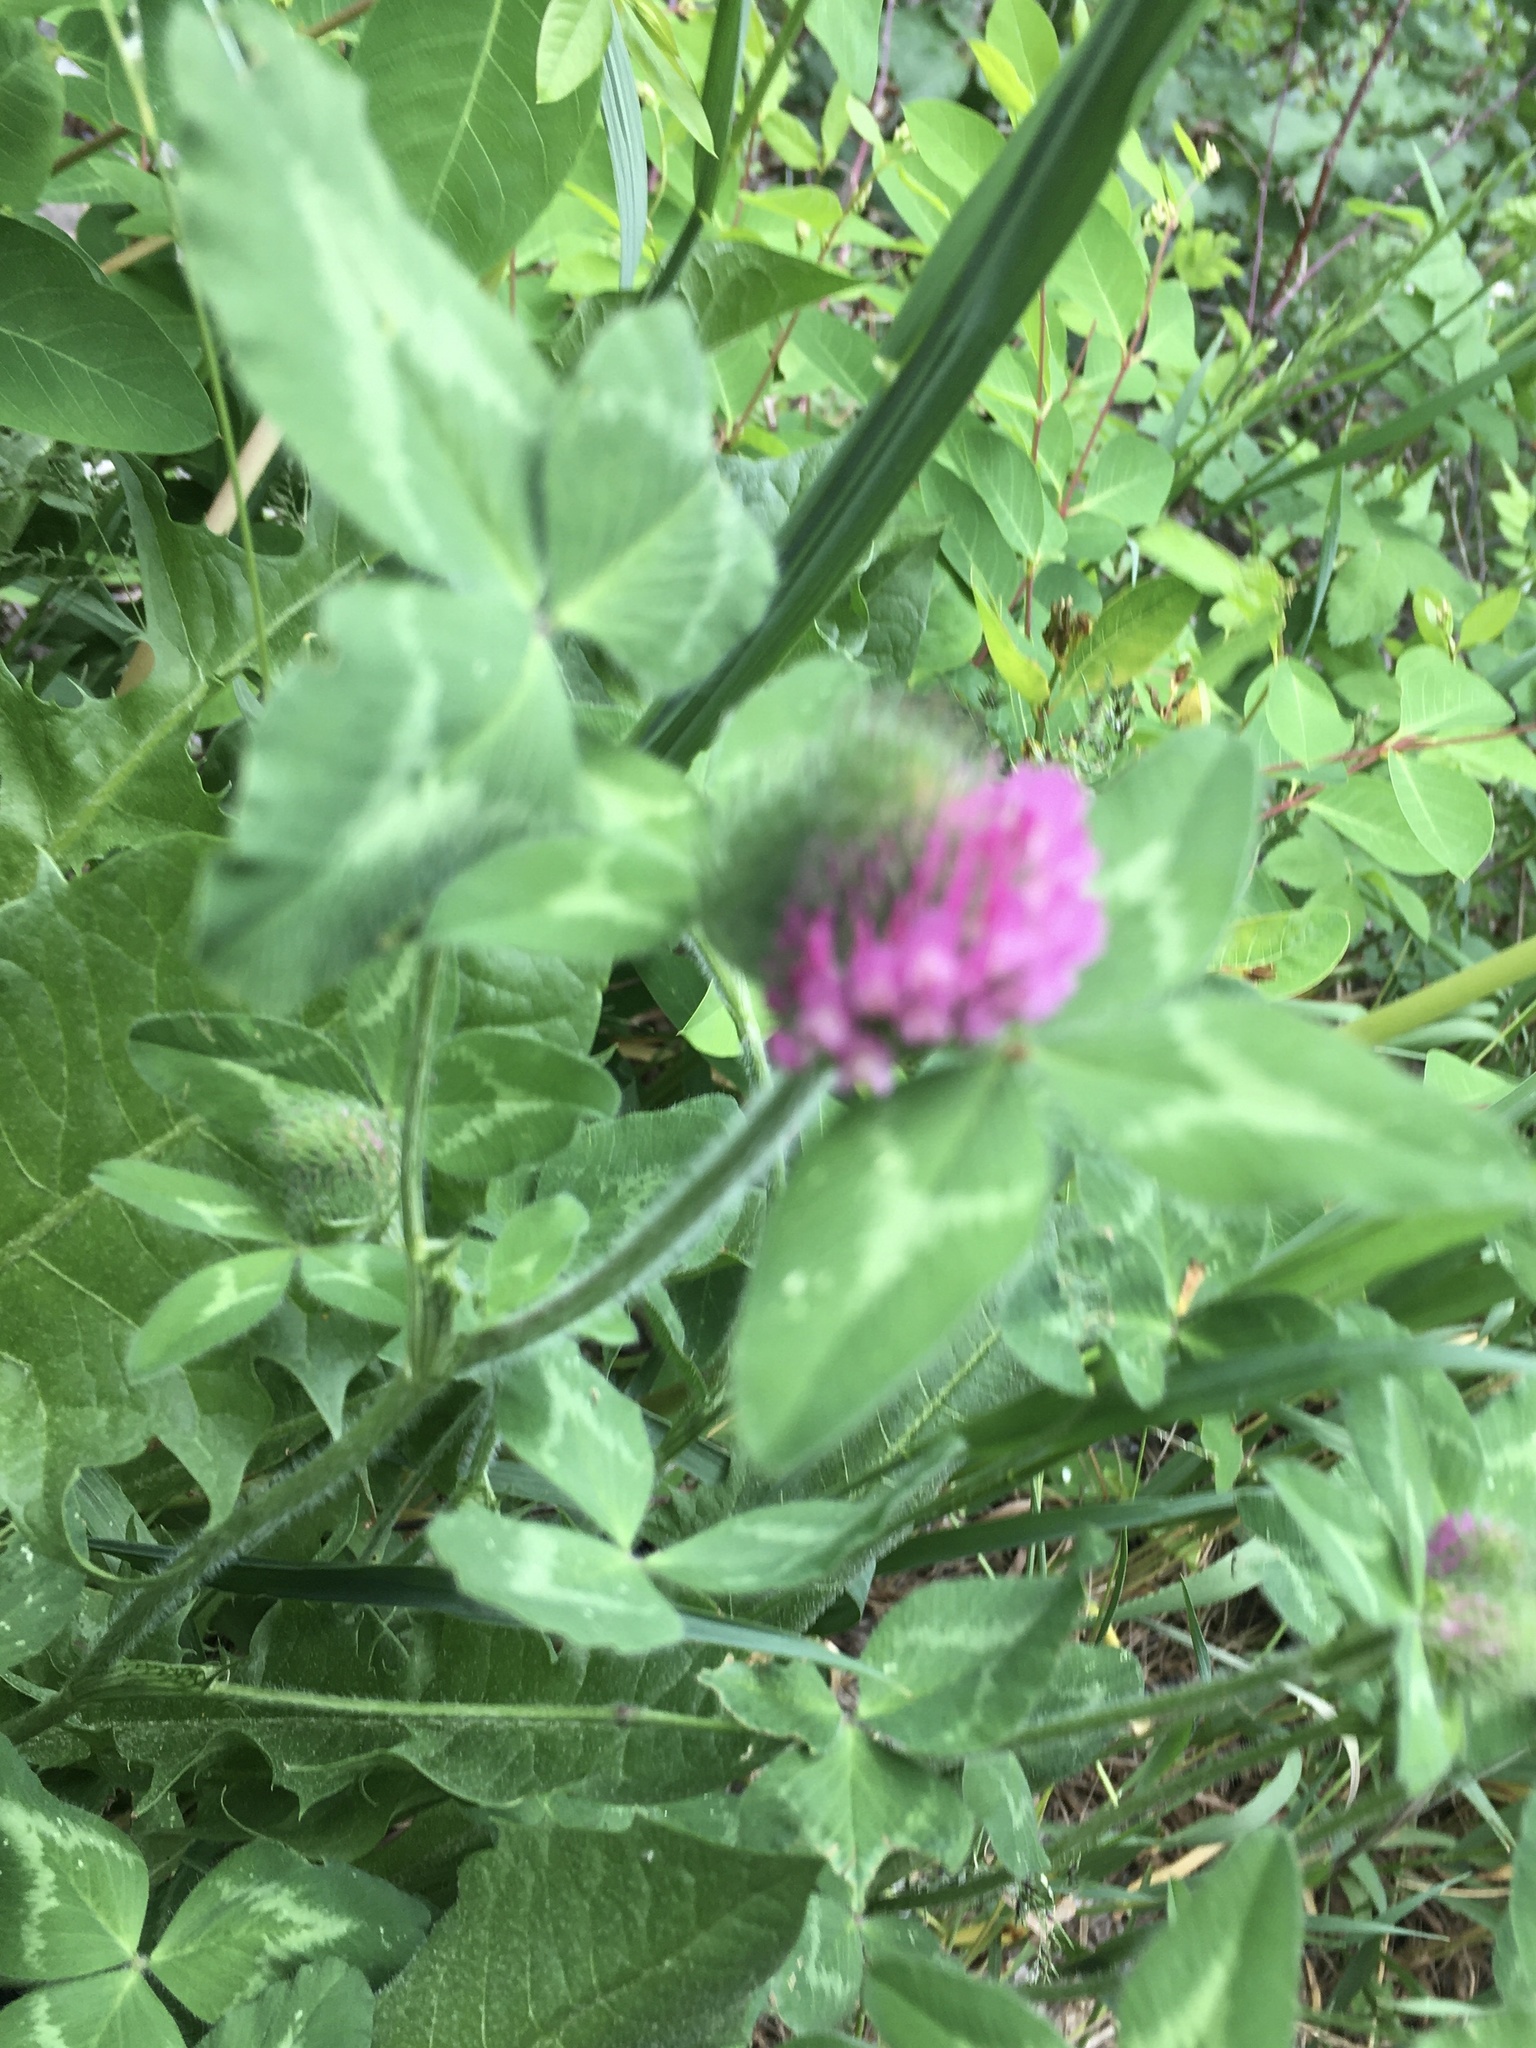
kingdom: Plantae
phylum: Tracheophyta
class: Magnoliopsida
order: Fabales
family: Fabaceae
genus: Trifolium
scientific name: Trifolium pratense
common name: Red clover
